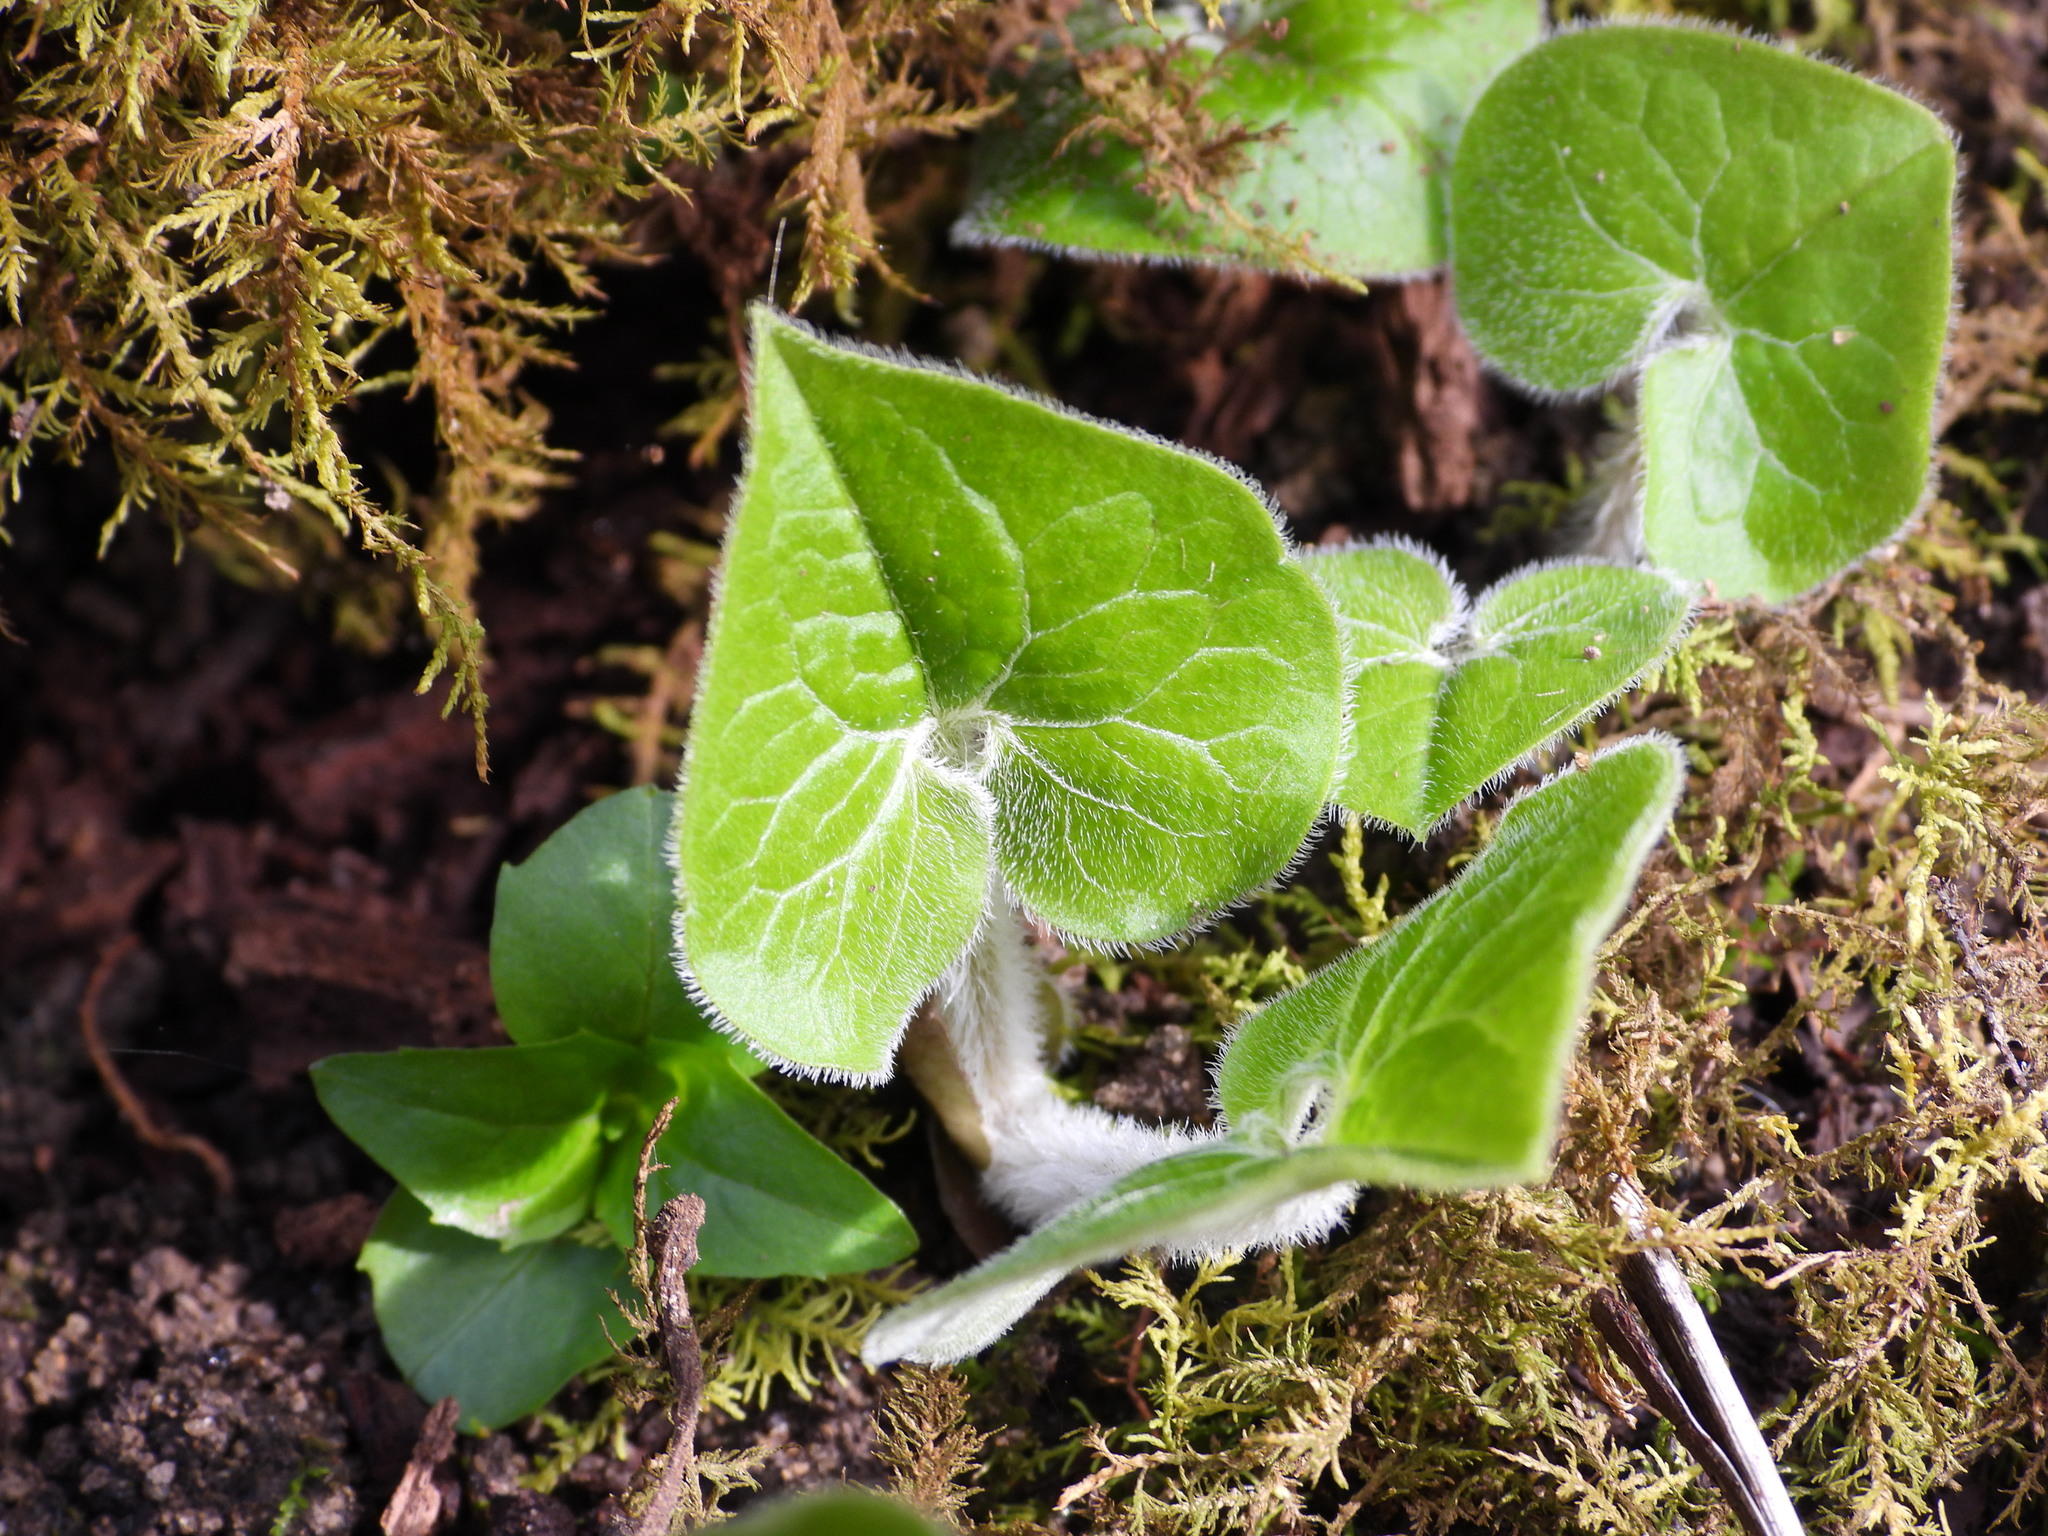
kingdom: Plantae
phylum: Tracheophyta
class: Magnoliopsida
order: Piperales
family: Aristolochiaceae
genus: Asarum
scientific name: Asarum canadense
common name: Wild ginger
